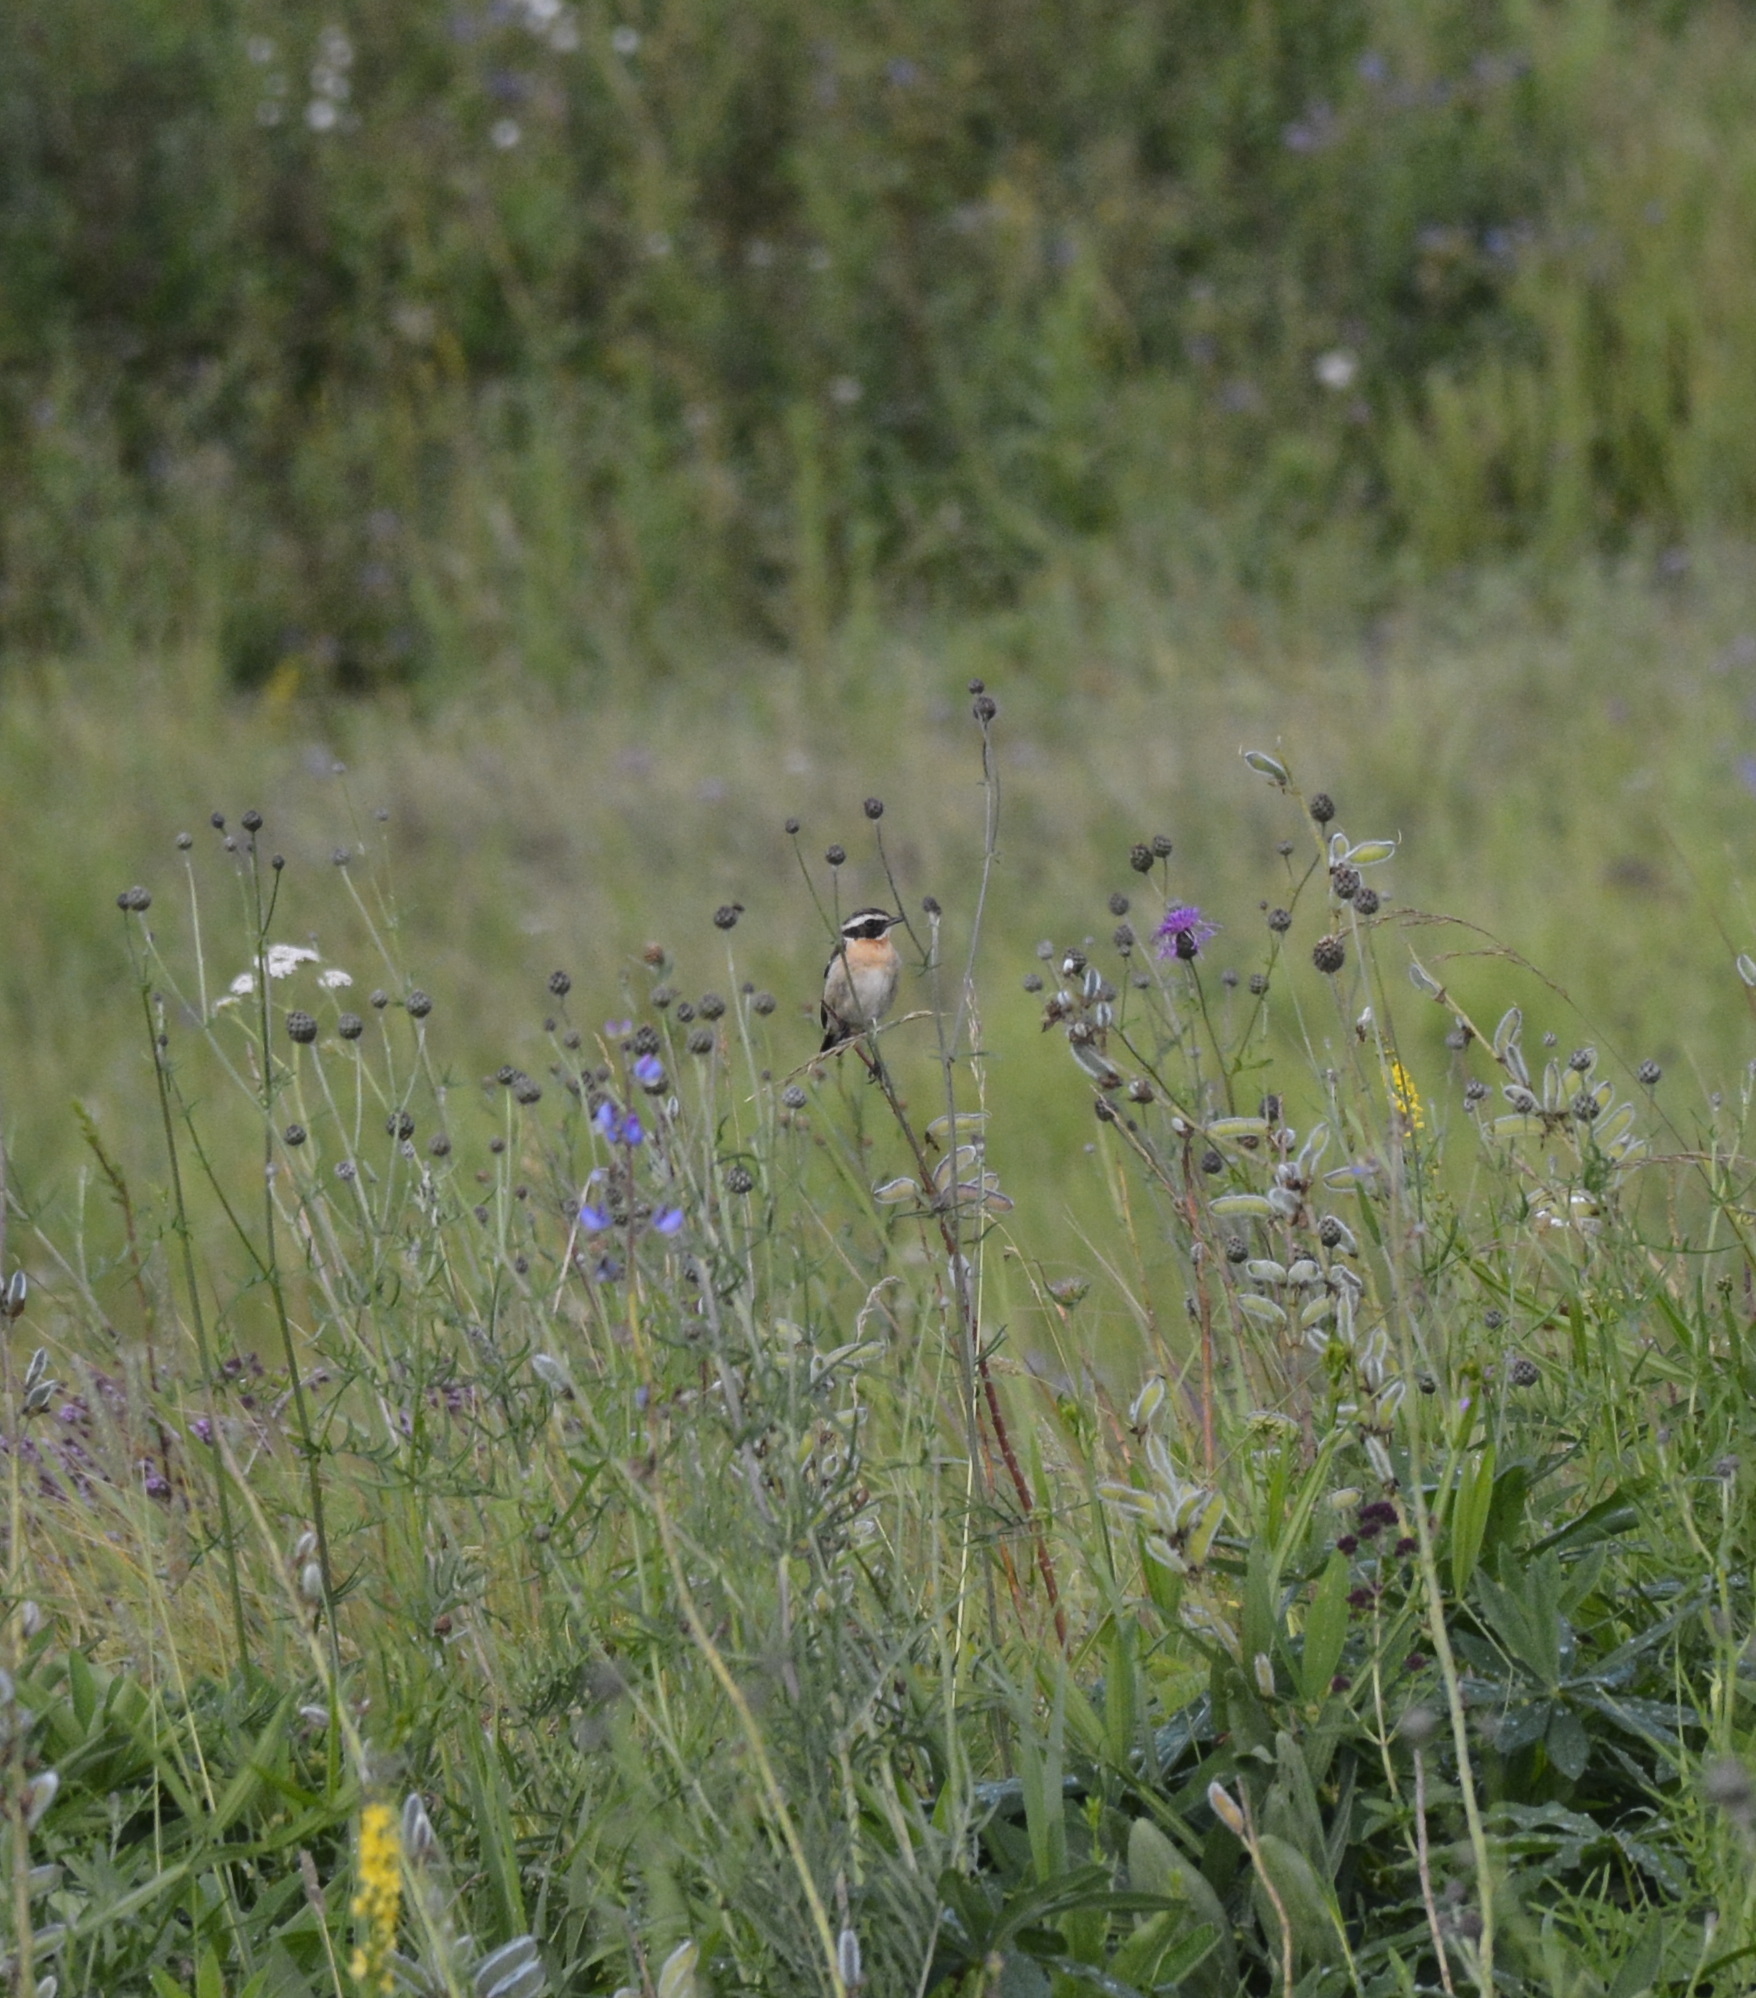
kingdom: Animalia
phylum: Chordata
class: Aves
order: Passeriformes
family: Muscicapidae
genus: Saxicola
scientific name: Saxicola rubetra
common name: Whinchat
